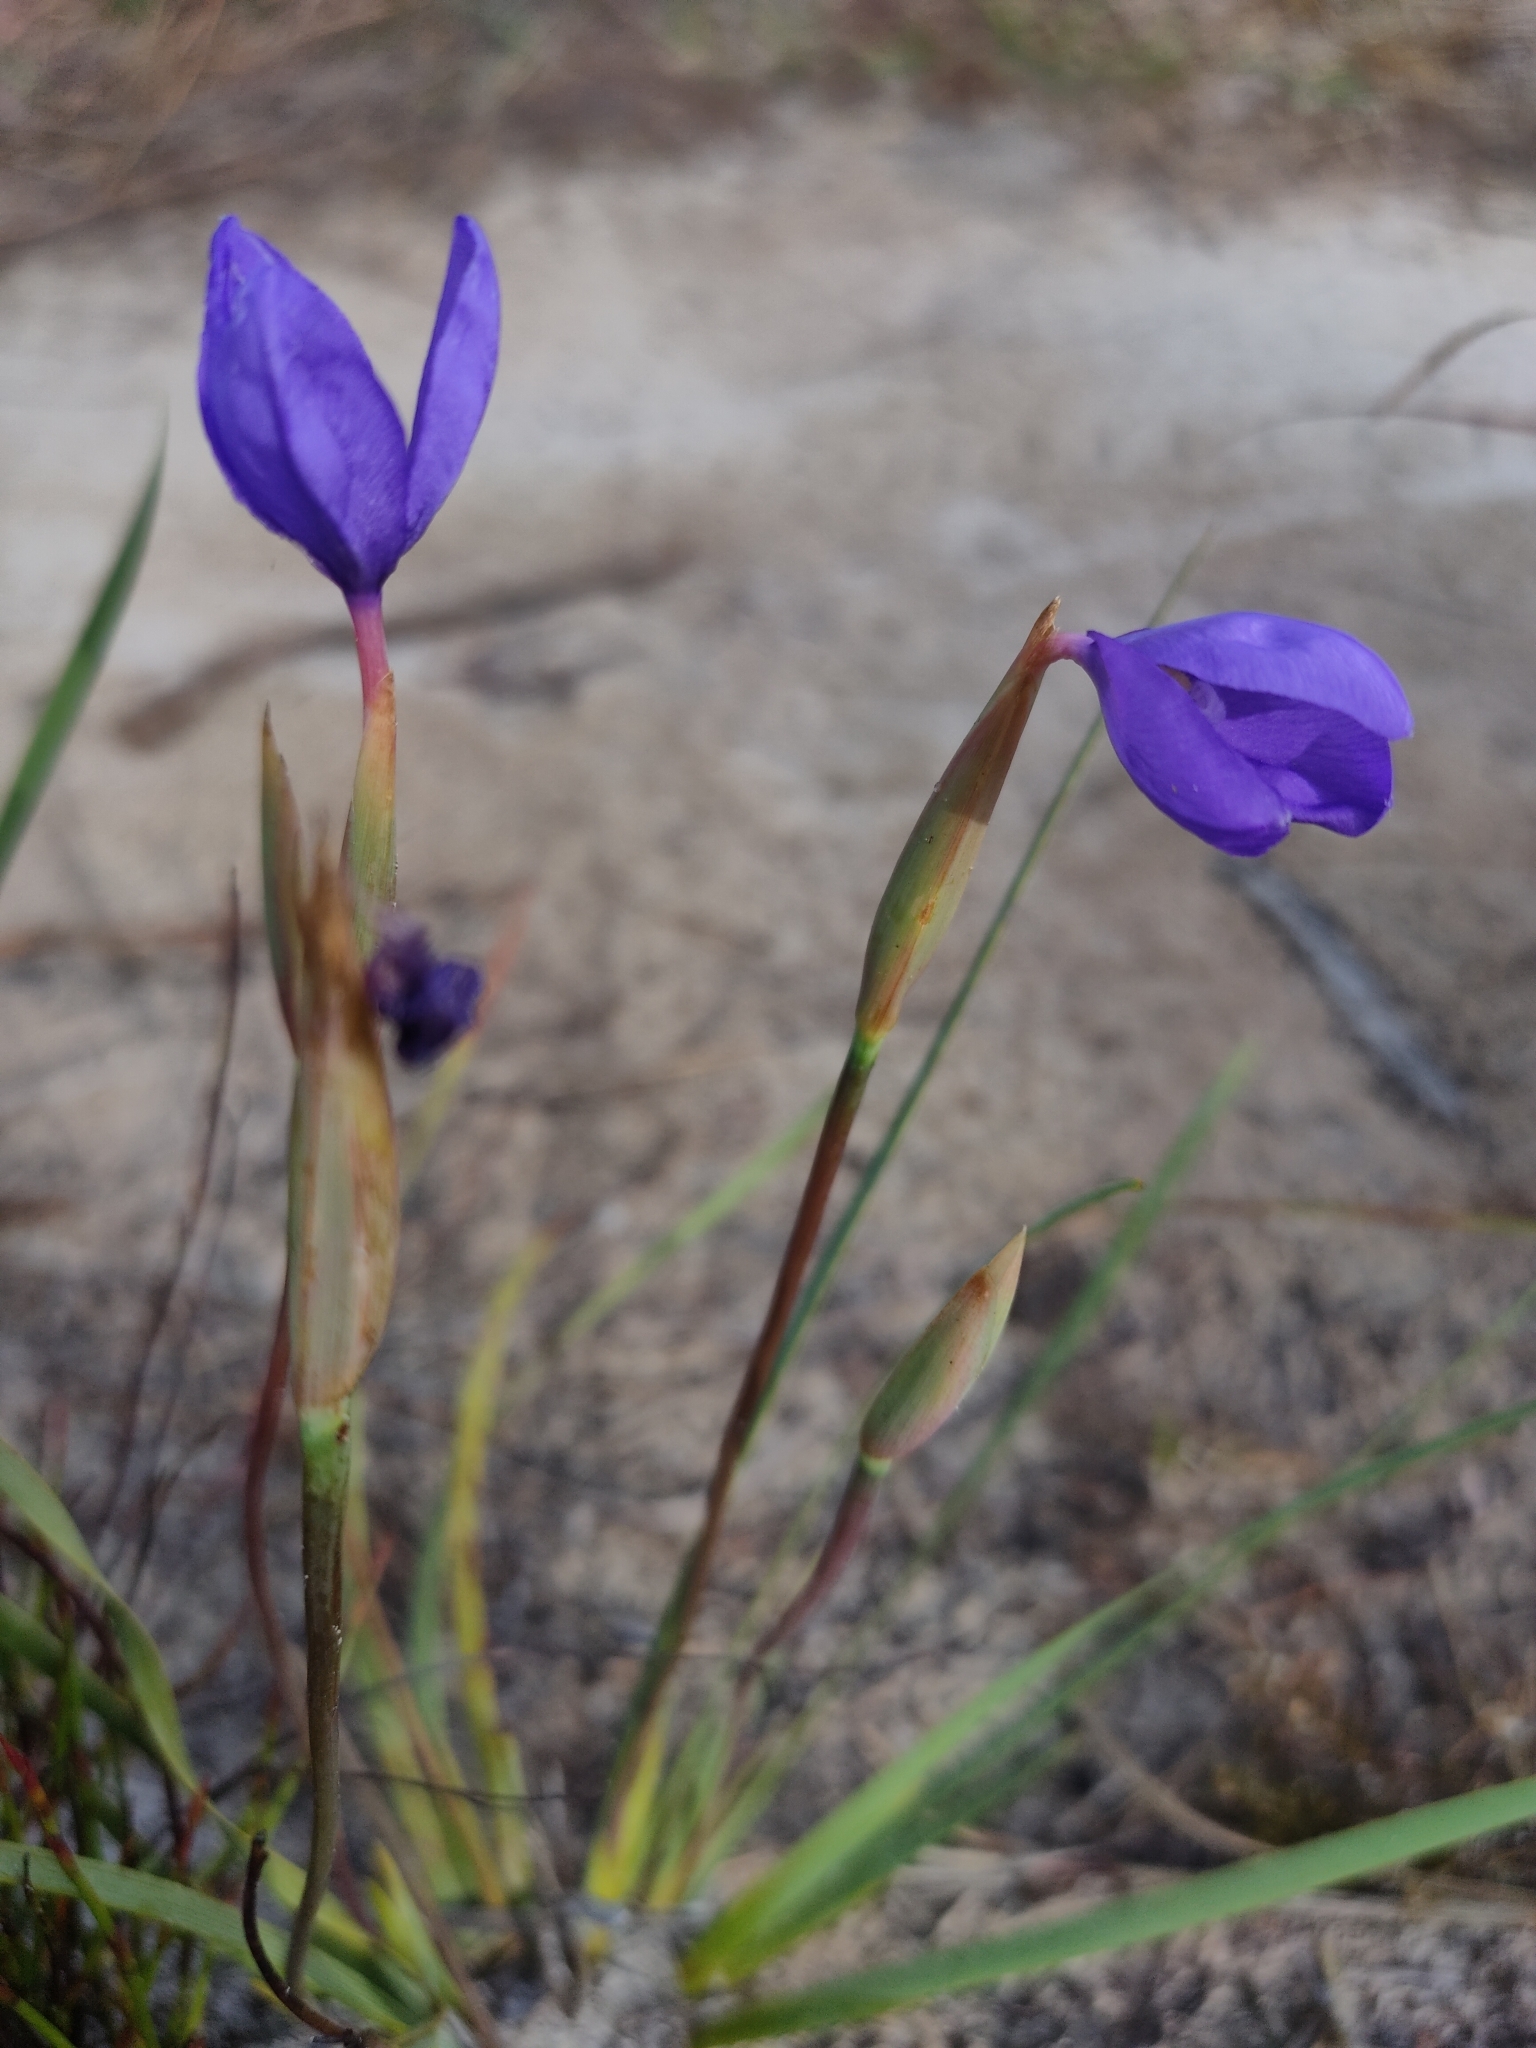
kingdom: Plantae
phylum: Tracheophyta
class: Liliopsida
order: Asparagales
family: Iridaceae
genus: Patersonia
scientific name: Patersonia fragilis
